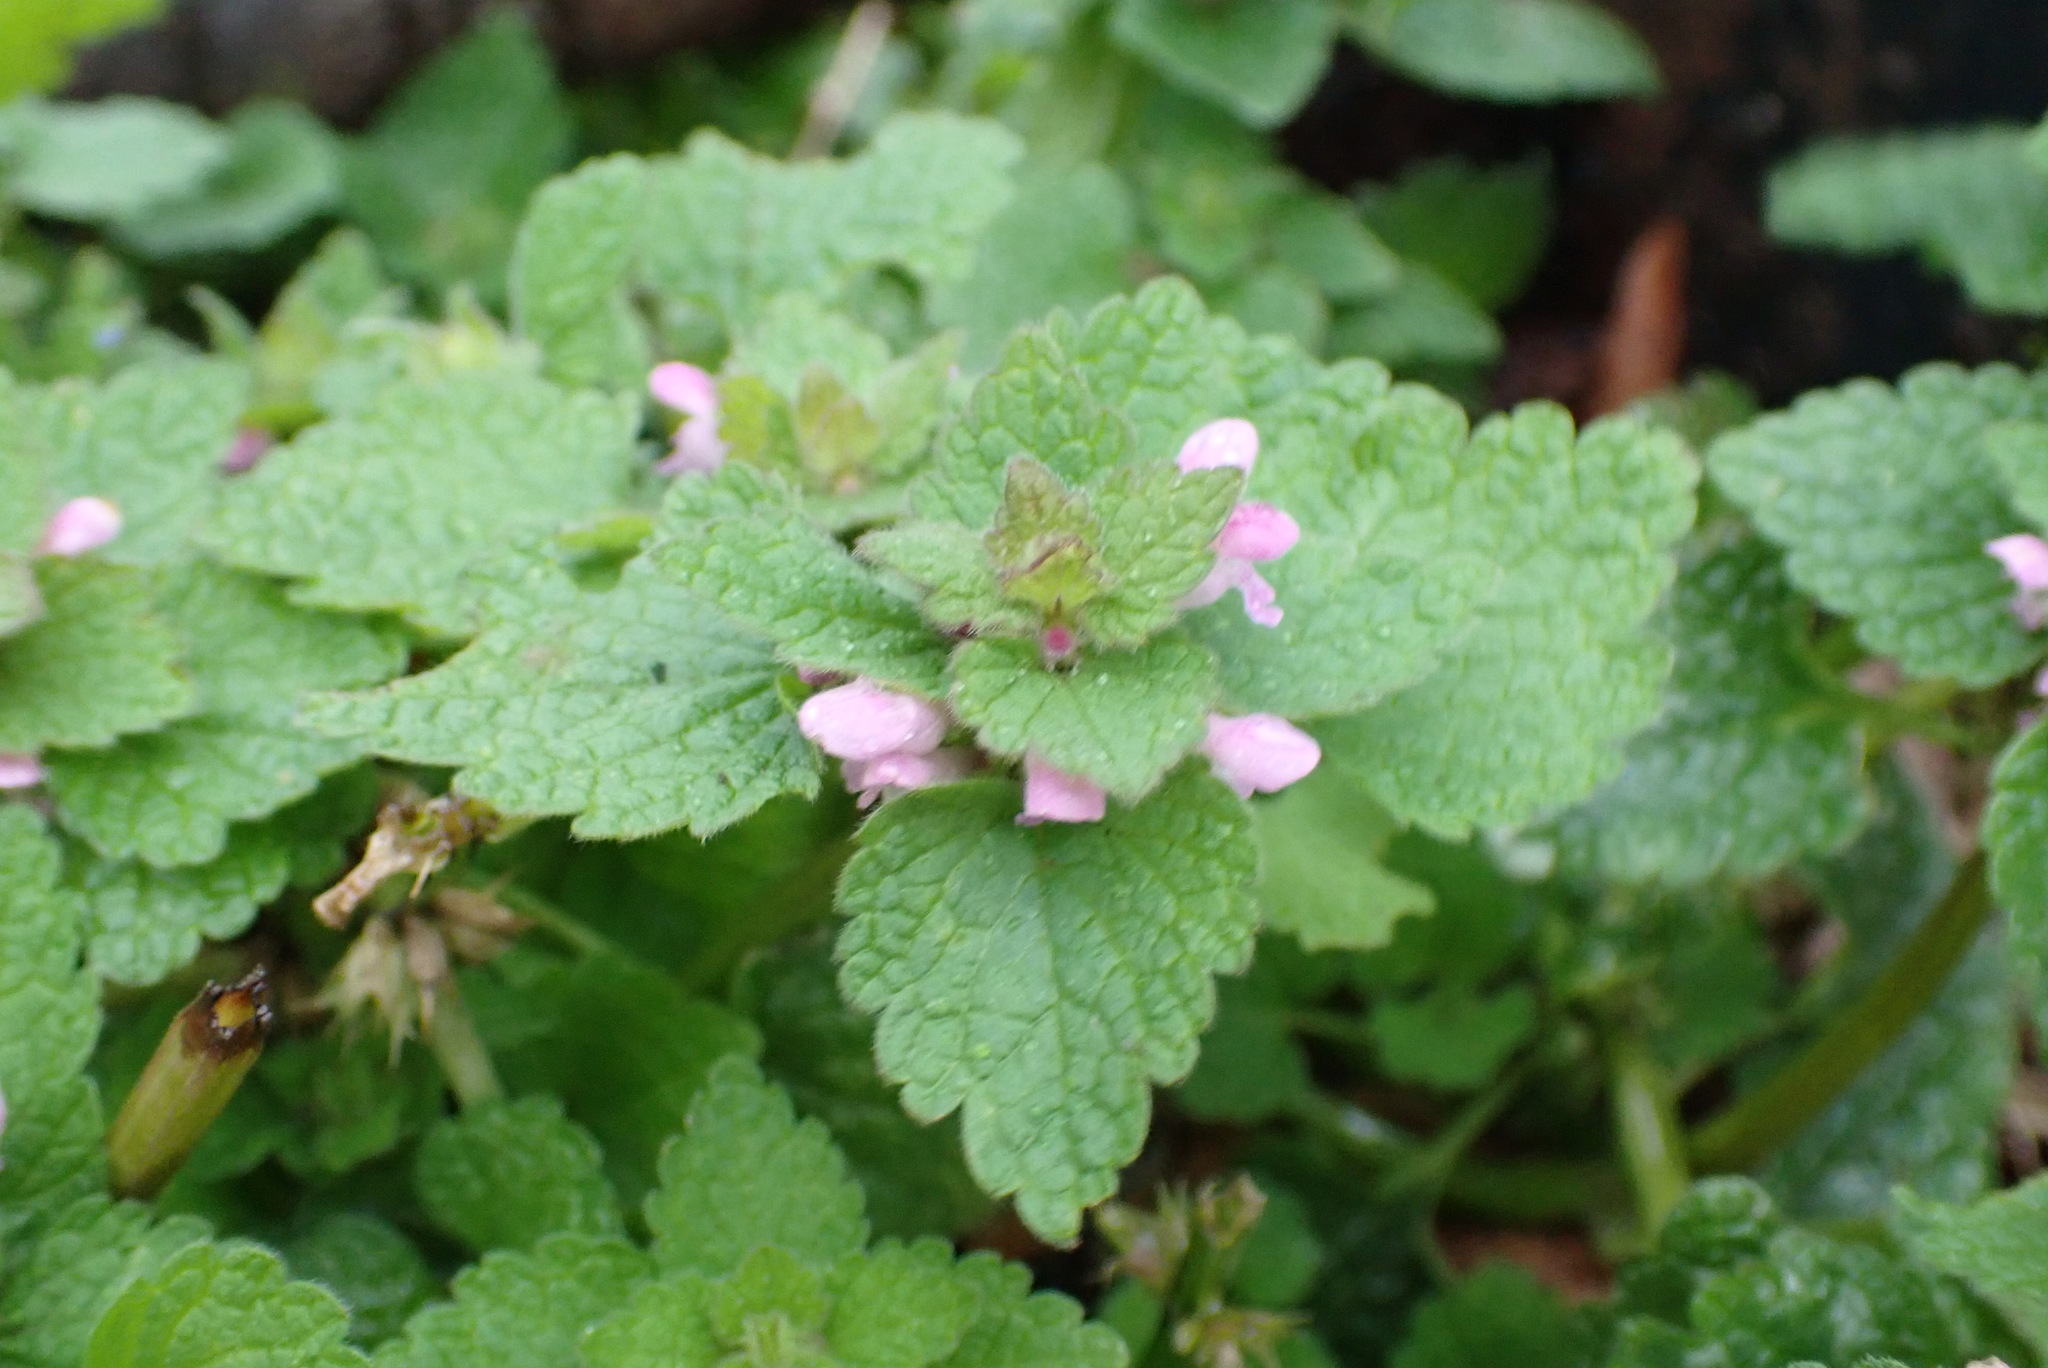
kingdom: Plantae
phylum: Tracheophyta
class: Magnoliopsida
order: Lamiales
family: Lamiaceae
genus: Lamium
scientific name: Lamium purpureum
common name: Red dead-nettle
